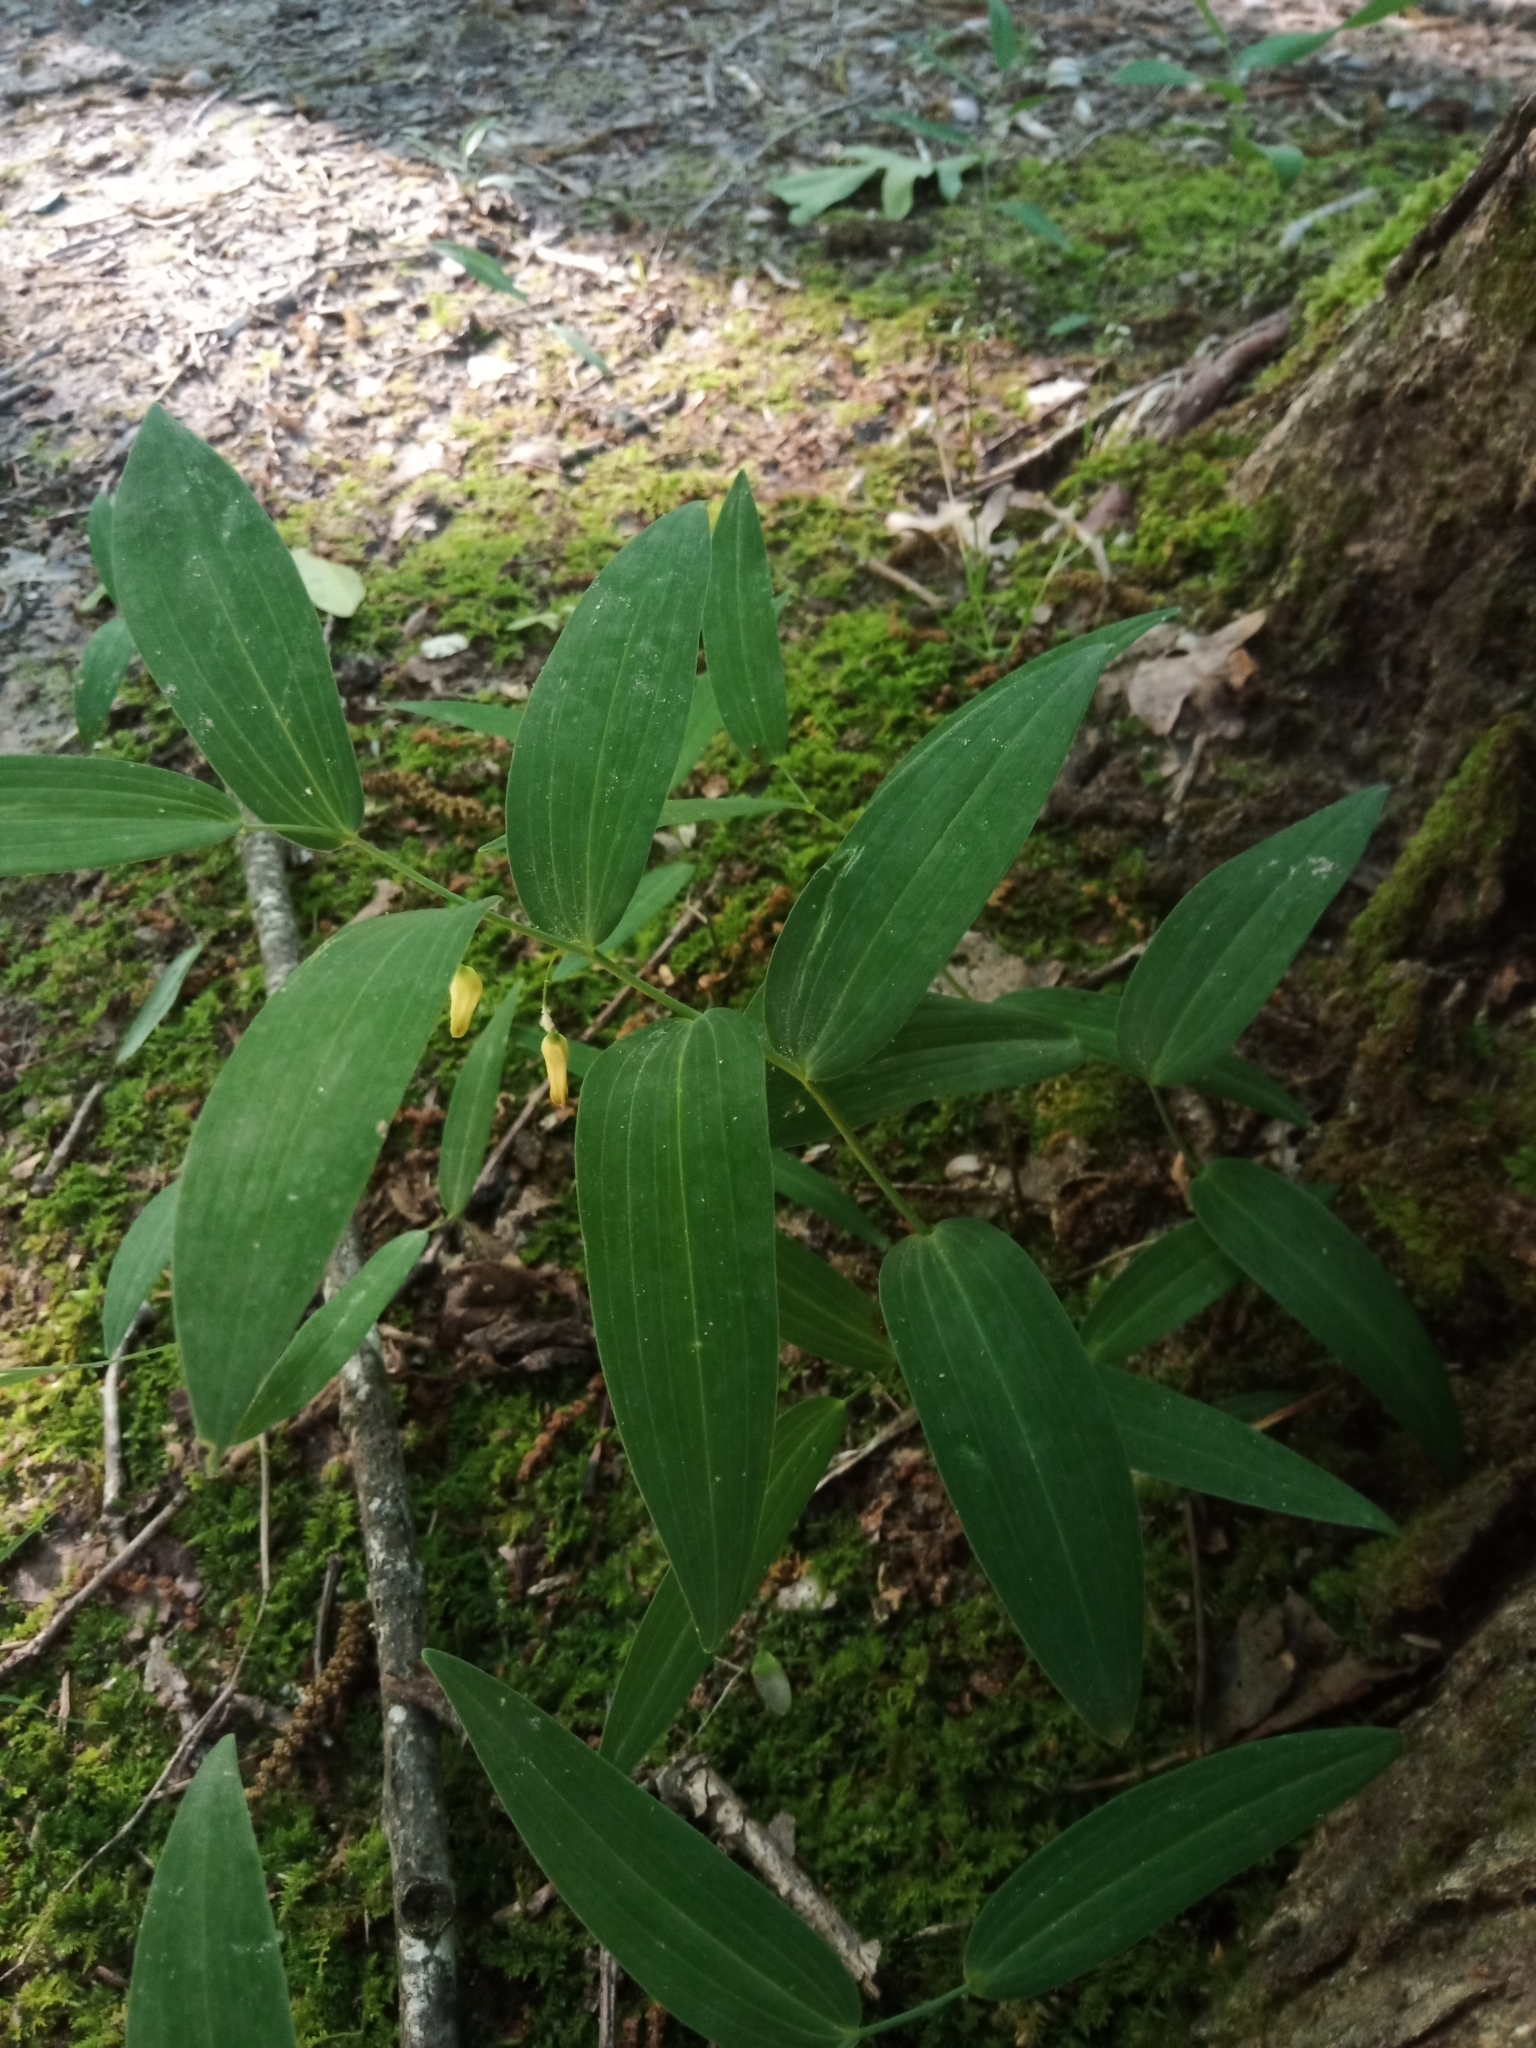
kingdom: Plantae
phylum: Tracheophyta
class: Liliopsida
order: Asparagales
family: Asparagaceae
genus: Polygonatum
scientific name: Polygonatum biflorum
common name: American solomon's-seal
